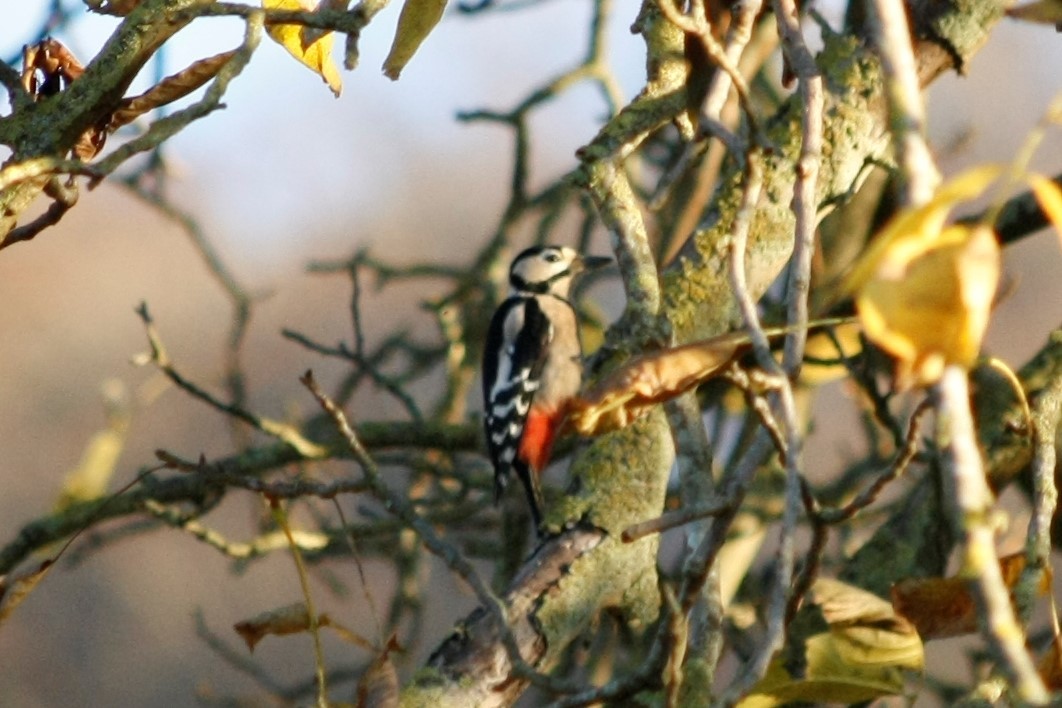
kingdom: Animalia
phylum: Chordata
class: Aves
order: Piciformes
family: Picidae
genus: Dendrocopos
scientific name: Dendrocopos major
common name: Great spotted woodpecker
